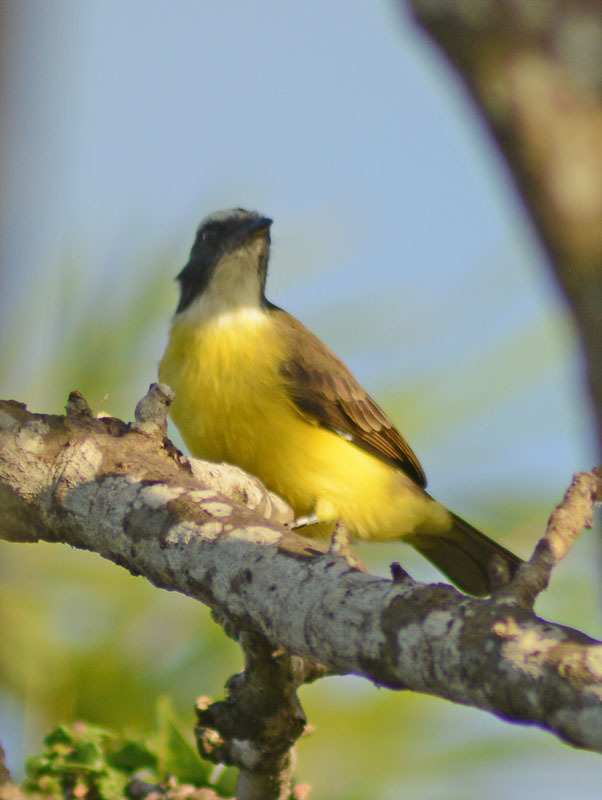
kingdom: Animalia
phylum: Chordata
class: Aves
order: Passeriformes
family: Tyrannidae
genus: Myiozetetes
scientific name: Myiozetetes similis
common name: Social flycatcher
